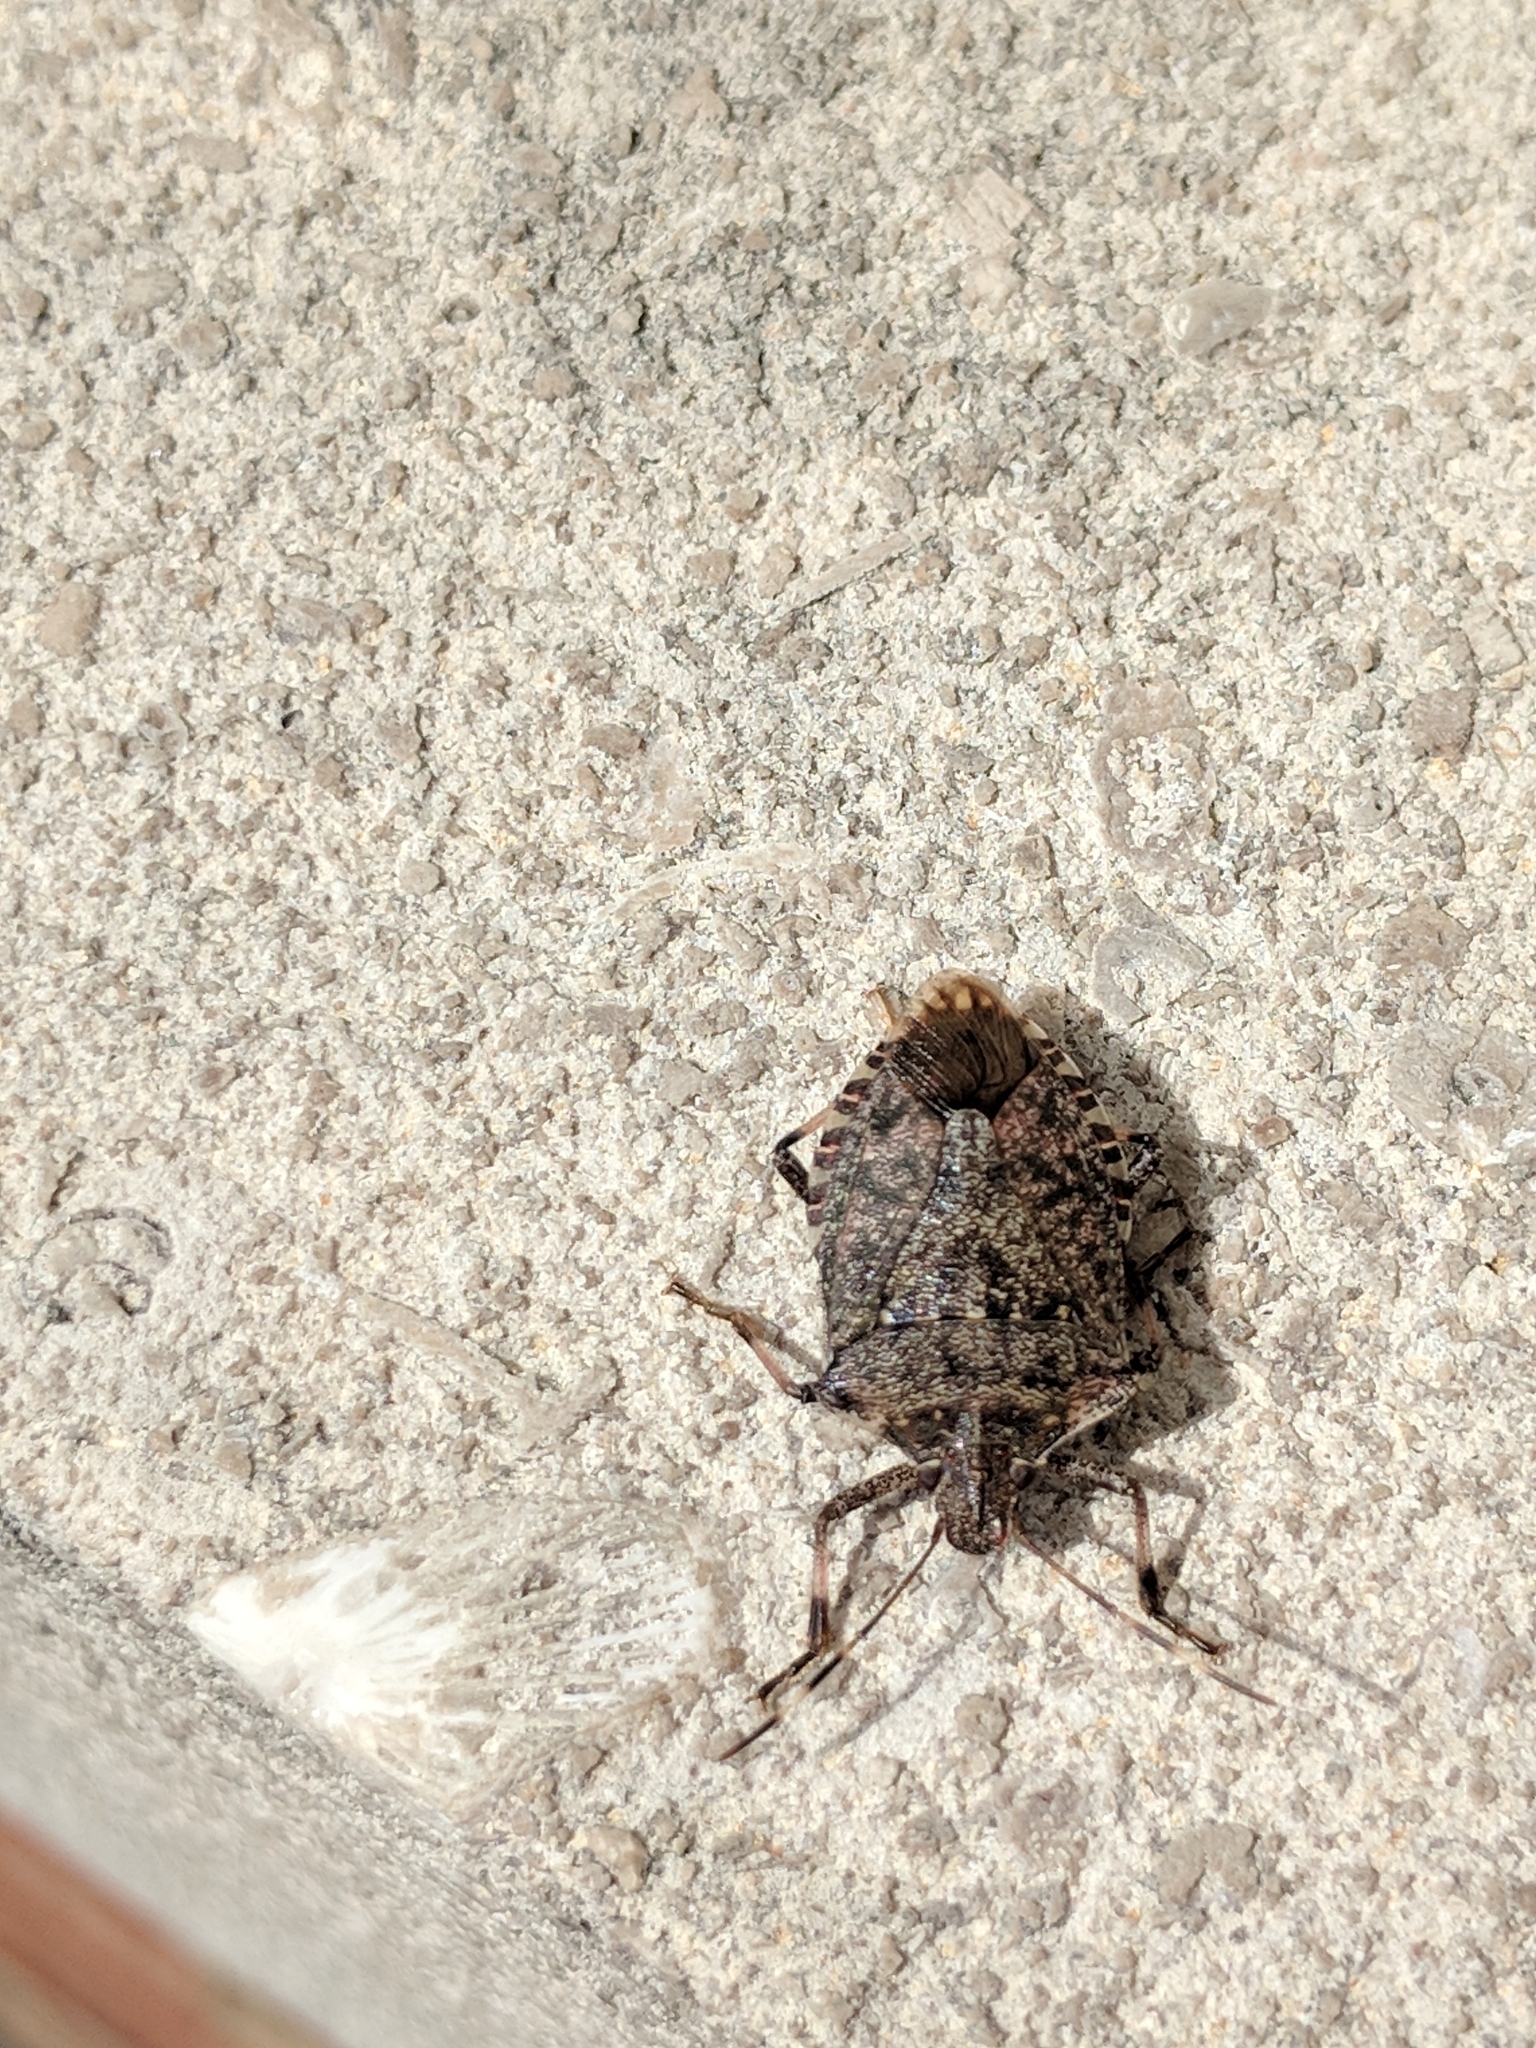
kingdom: Animalia
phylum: Arthropoda
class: Insecta
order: Hemiptera
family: Pentatomidae
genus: Halyomorpha
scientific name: Halyomorpha halys
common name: Brown marmorated stink bug
